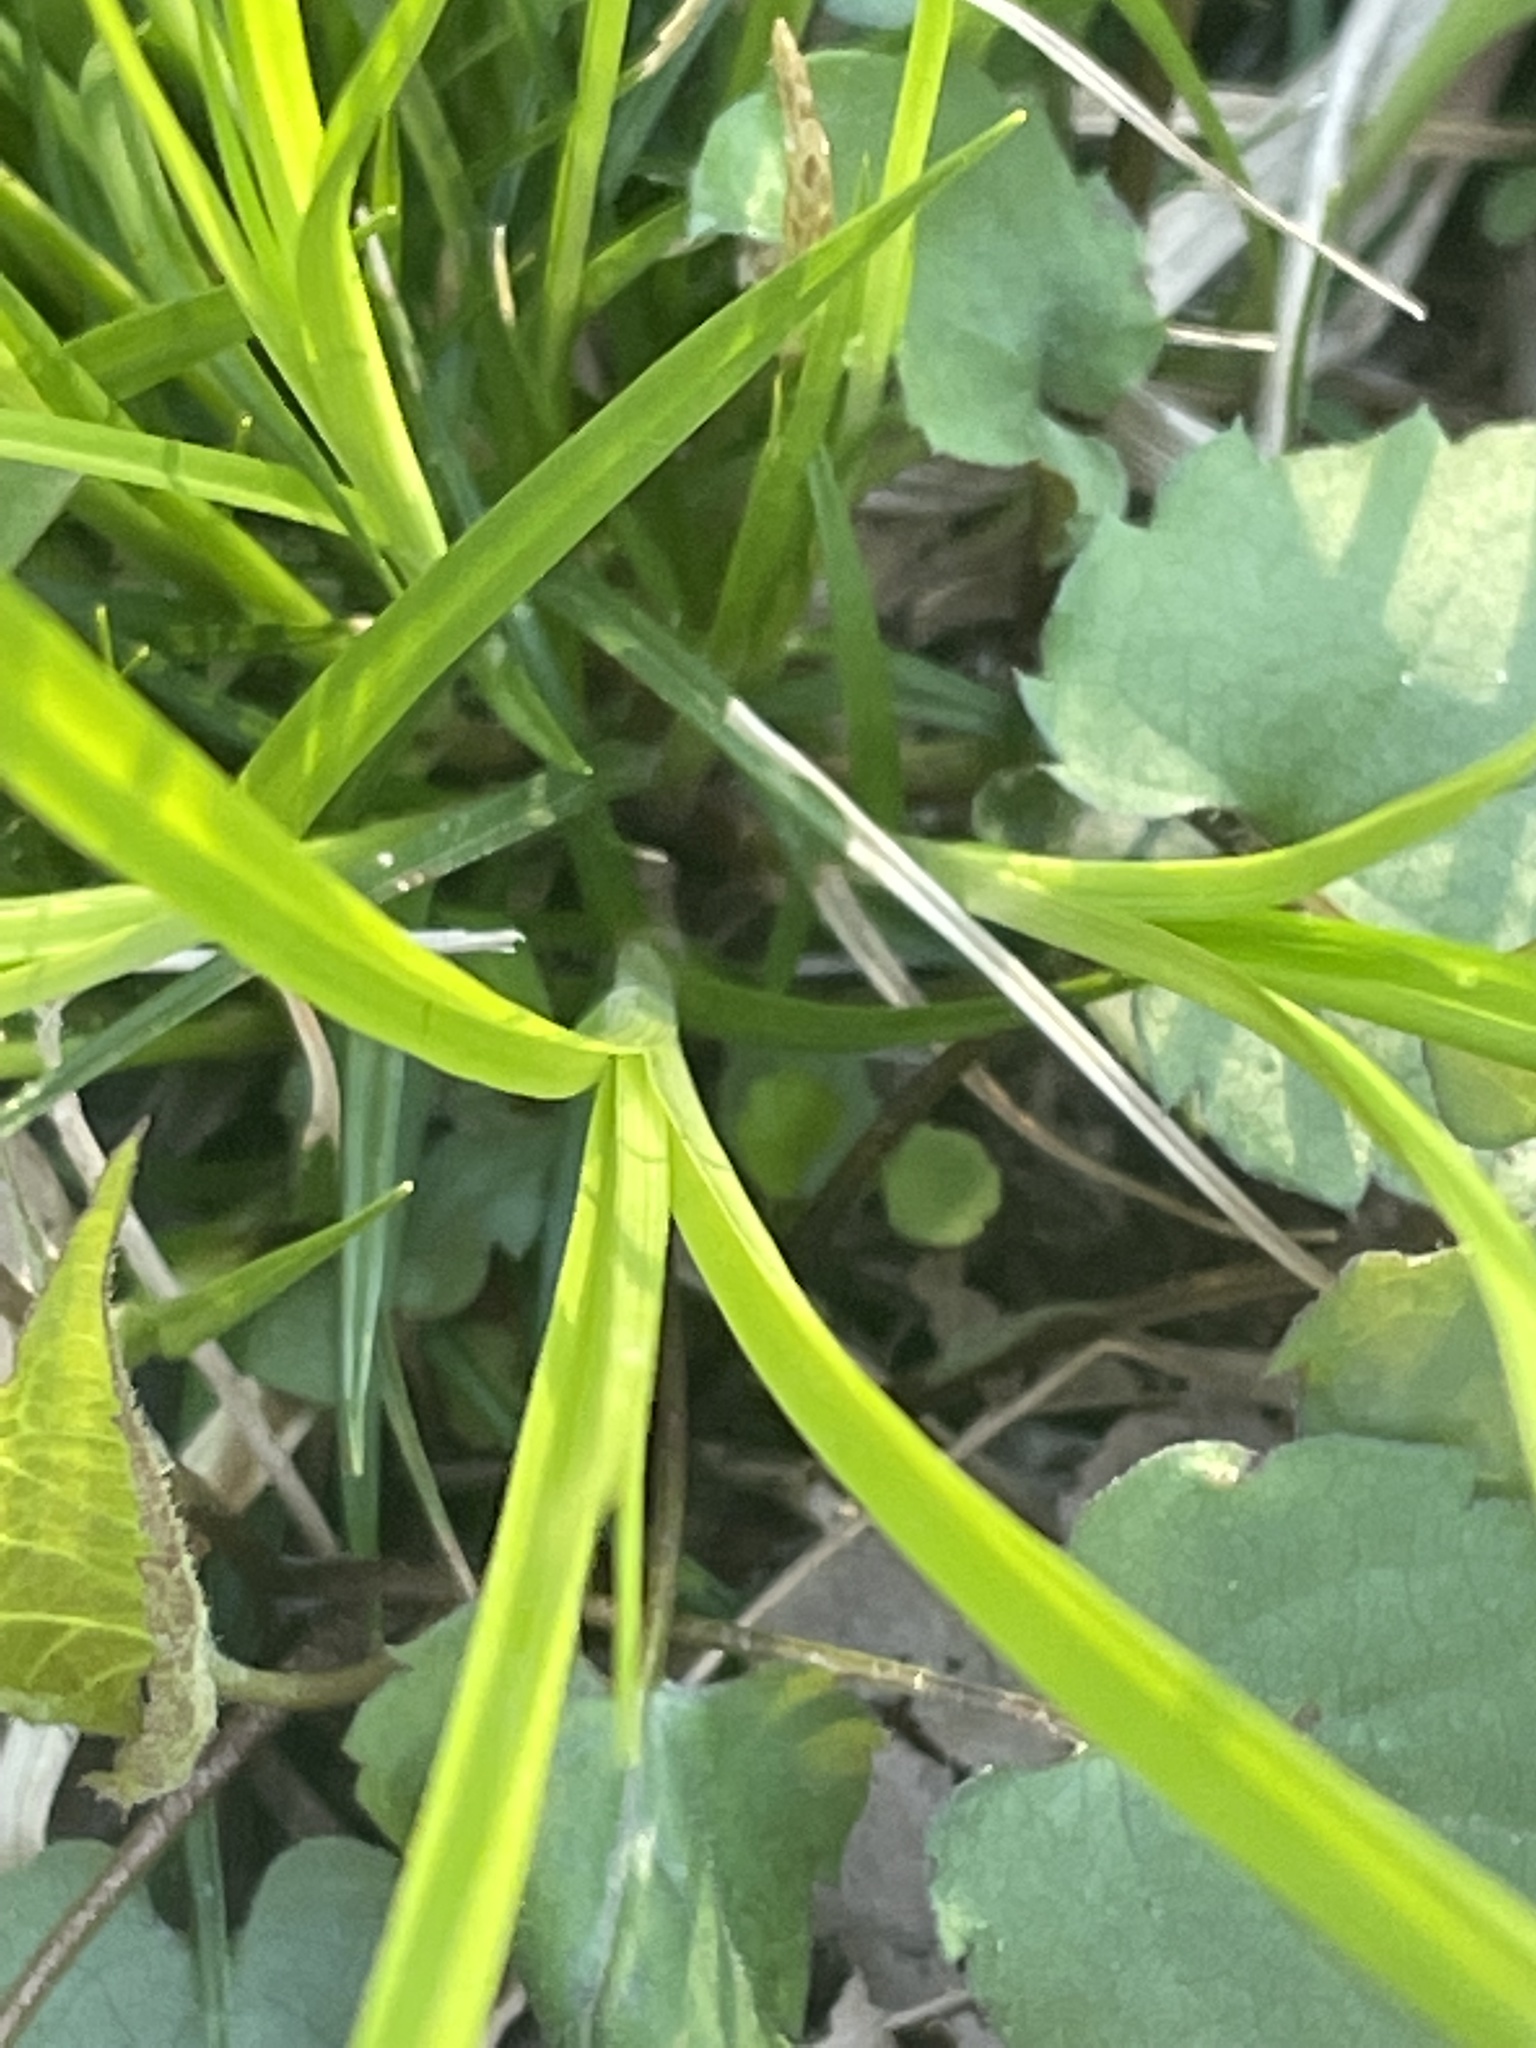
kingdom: Plantae
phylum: Tracheophyta
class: Liliopsida
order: Poales
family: Cyperaceae
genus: Carex
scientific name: Carex pensylvanica
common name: Common oak sedge
